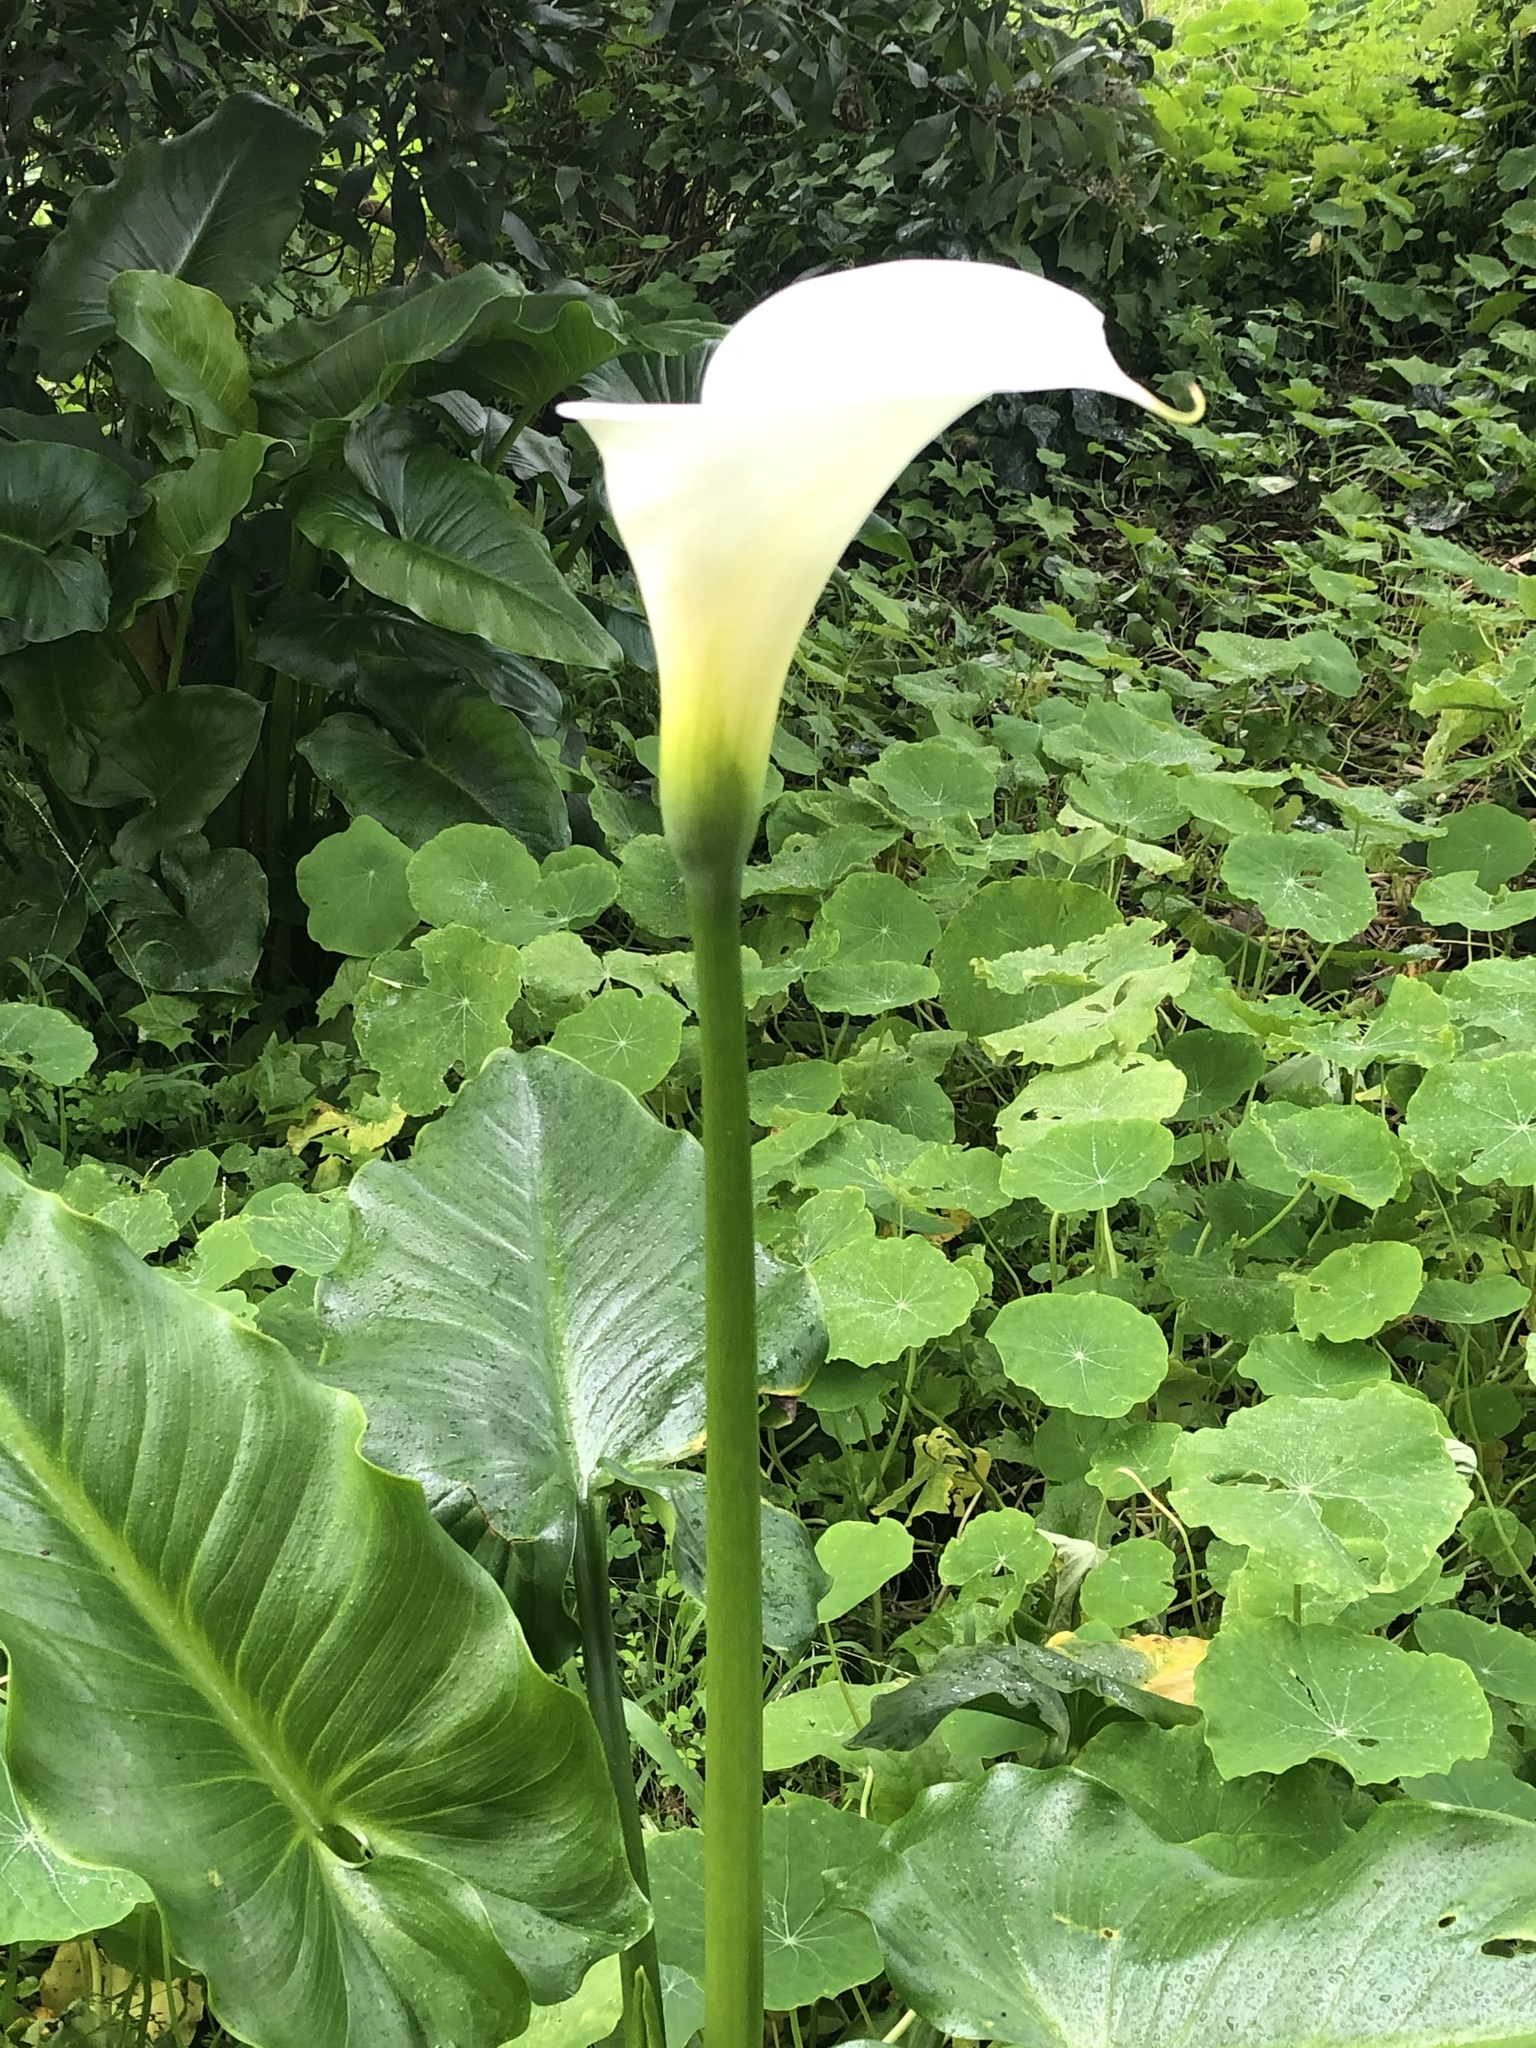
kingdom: Plantae
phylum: Tracheophyta
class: Liliopsida
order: Alismatales
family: Araceae
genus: Zantedeschia
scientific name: Zantedeschia aethiopica
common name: Altar-lily
